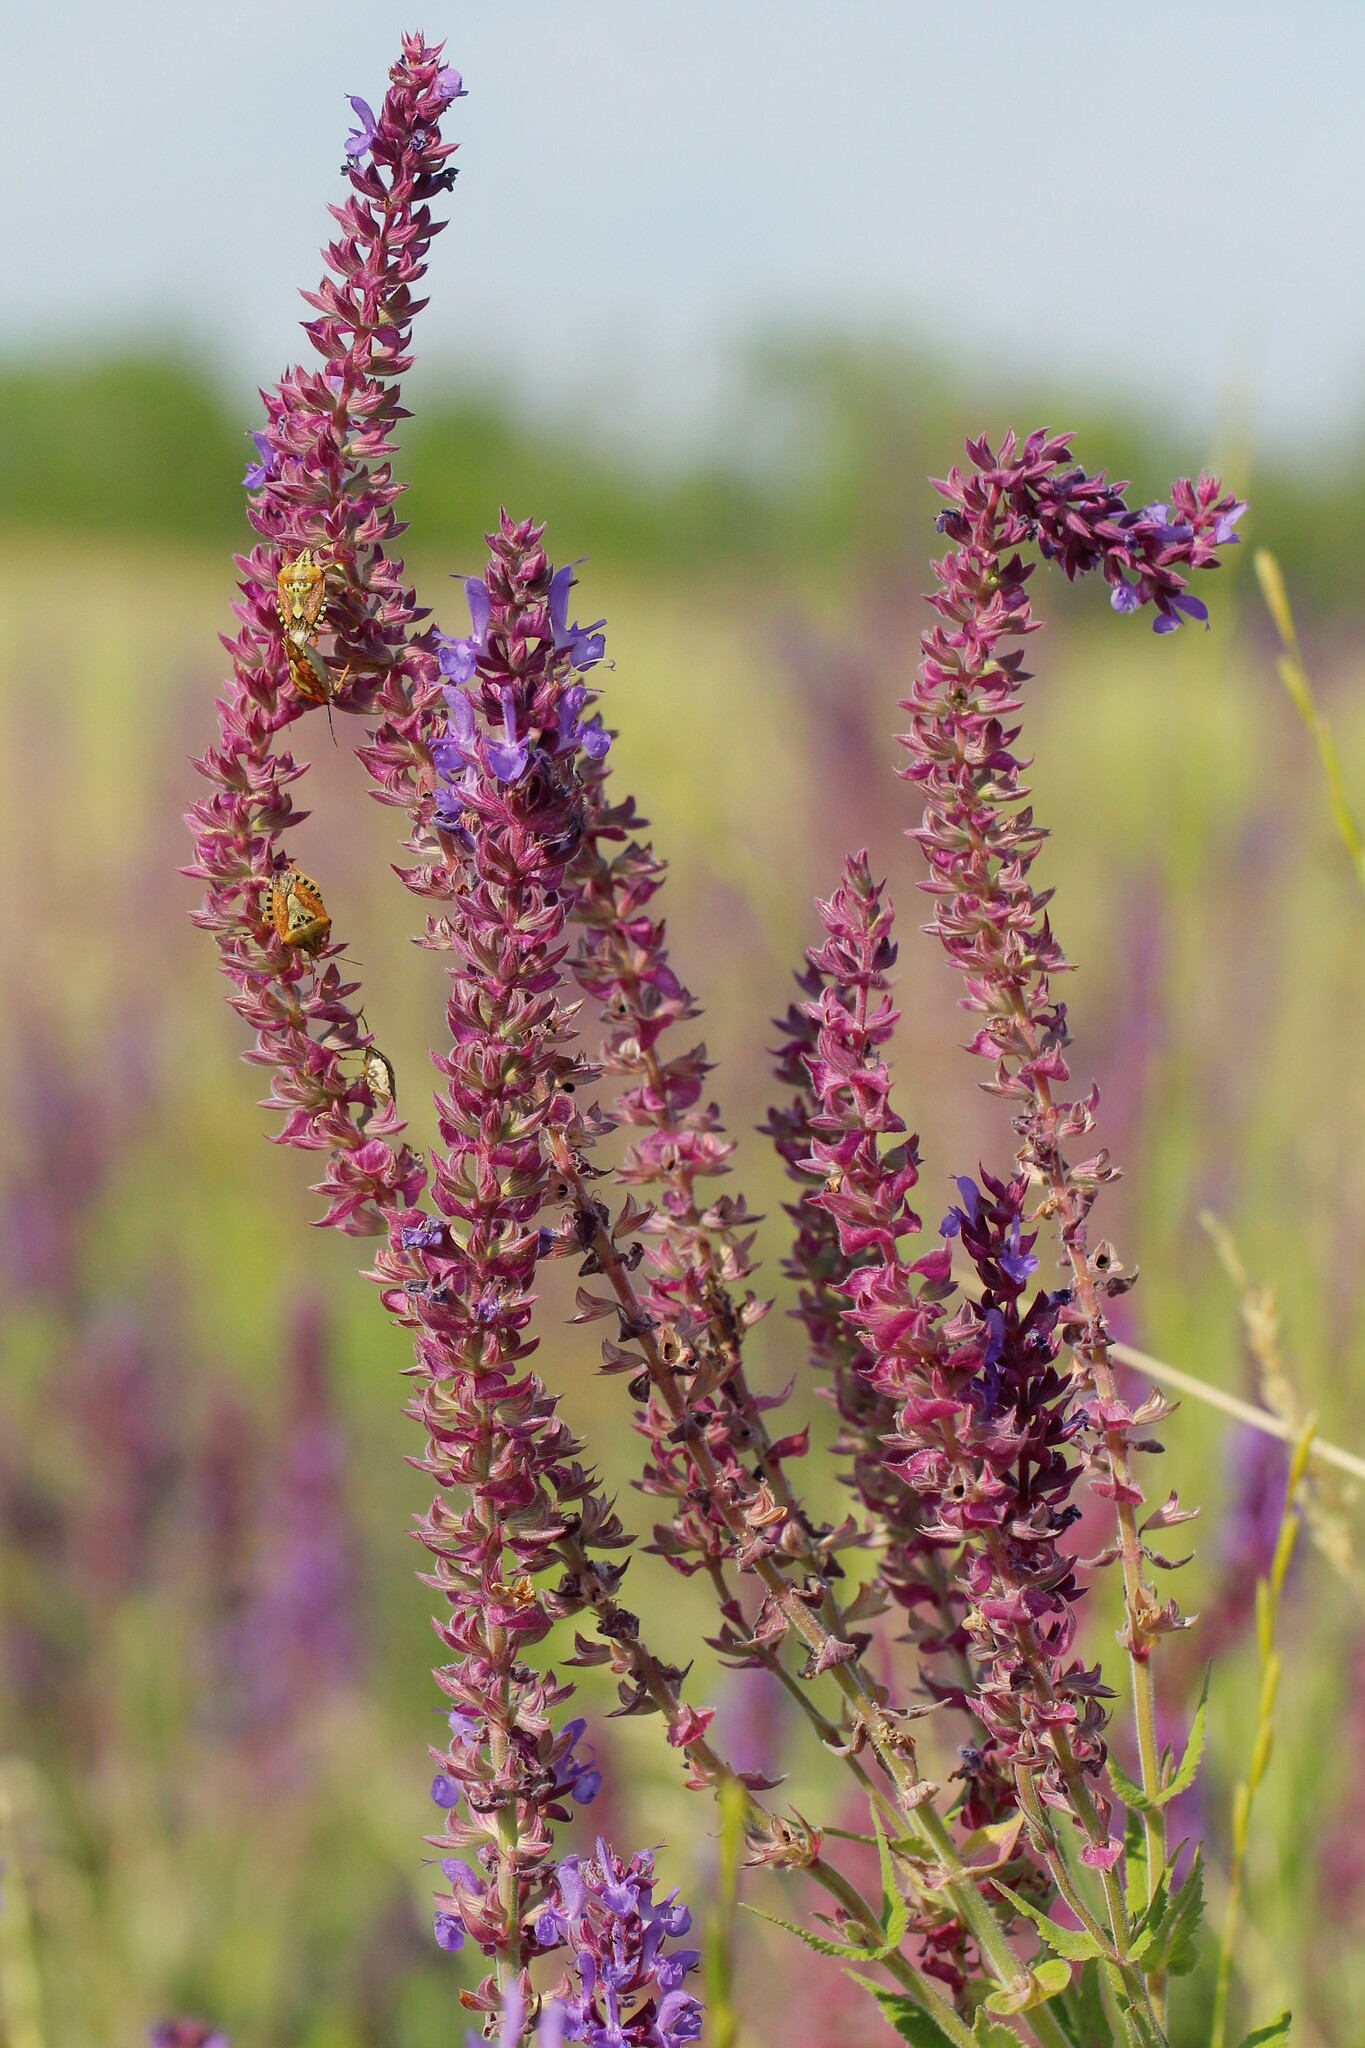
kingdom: Plantae
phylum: Tracheophyta
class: Magnoliopsida
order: Lamiales
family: Lamiaceae
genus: Salvia
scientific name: Salvia nemorosa
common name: Balkan clary
